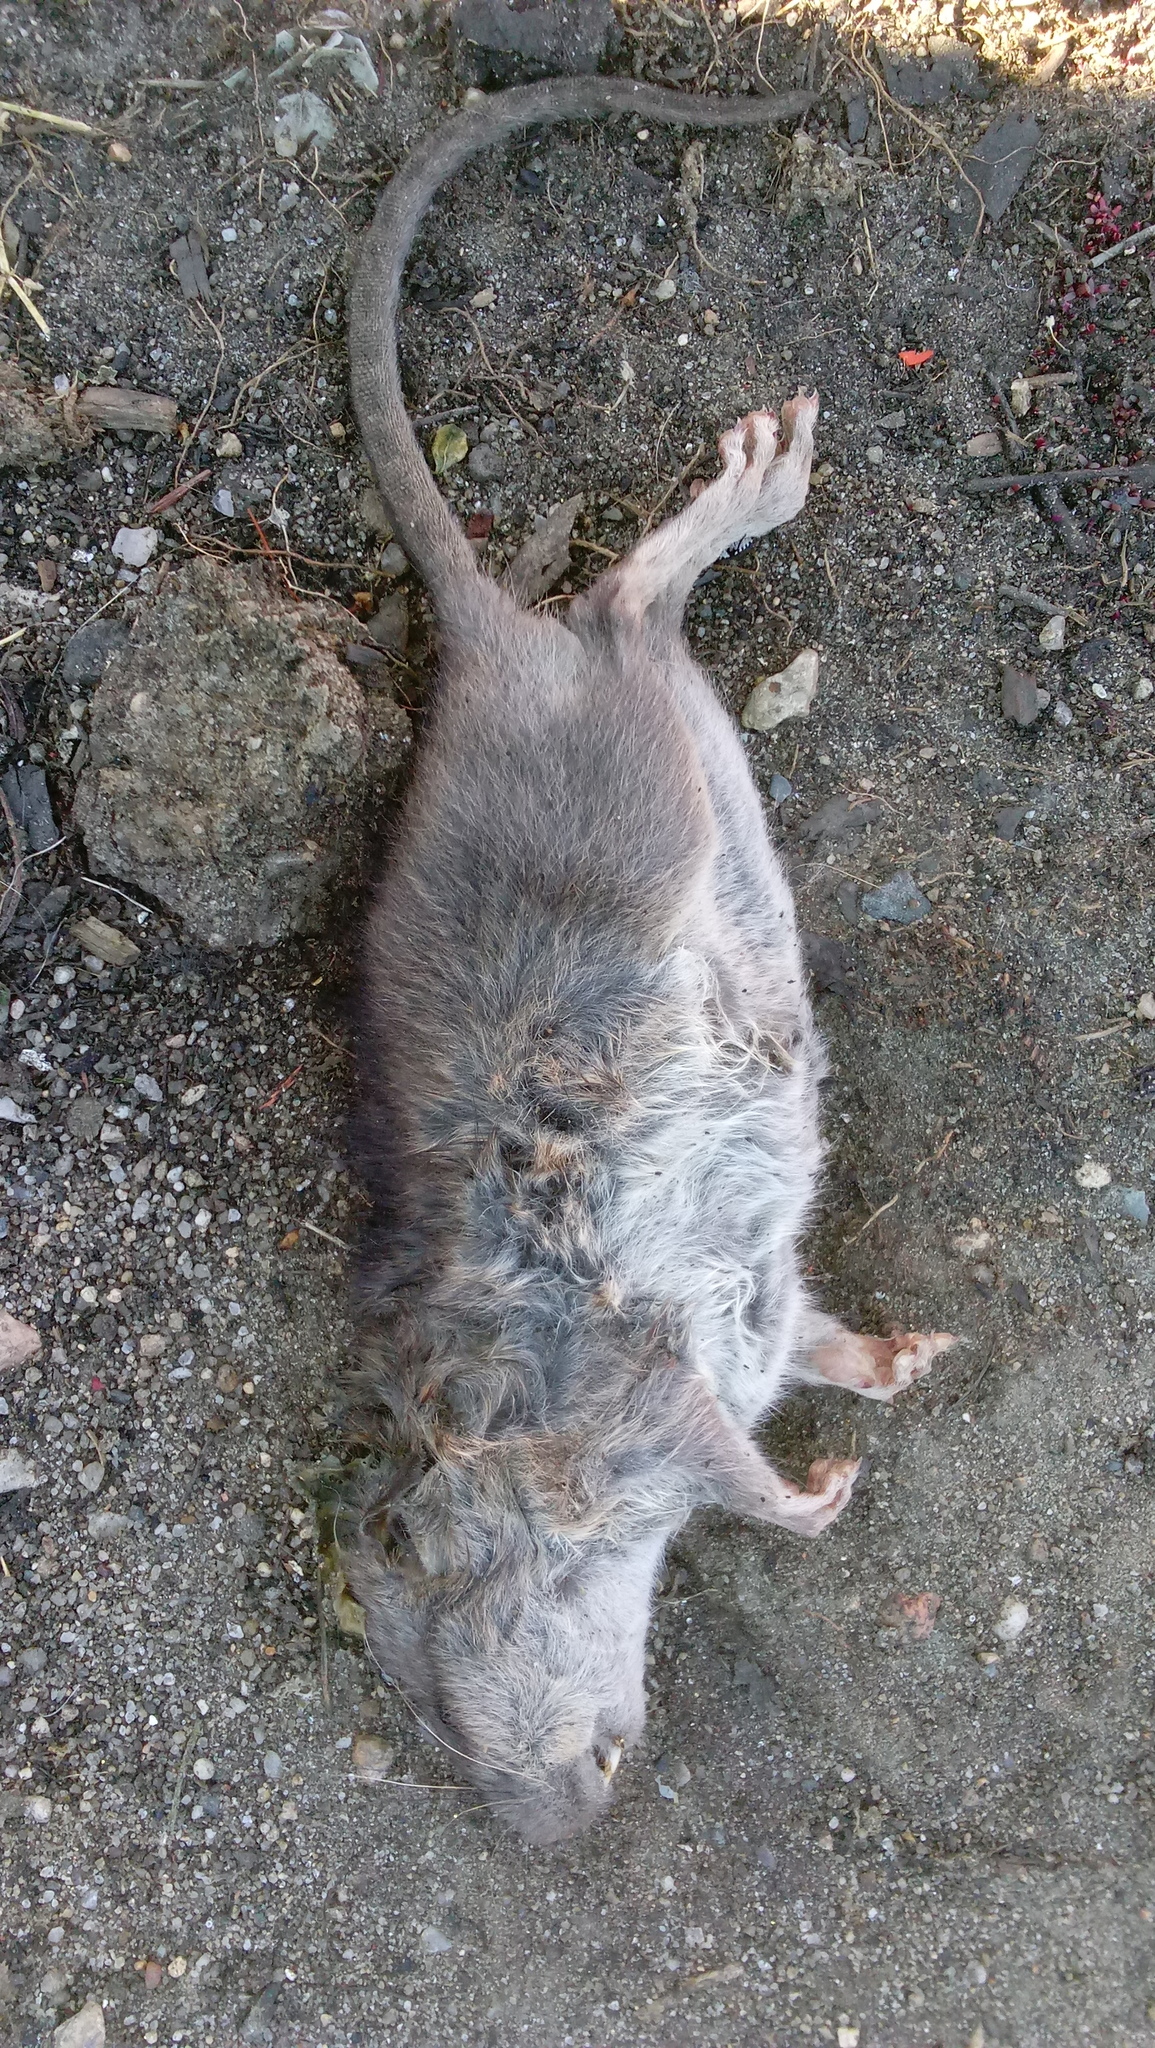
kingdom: Animalia
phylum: Chordata
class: Mammalia
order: Rodentia
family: Muridae
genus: Rattus
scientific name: Rattus norvegicus
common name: Brown rat
